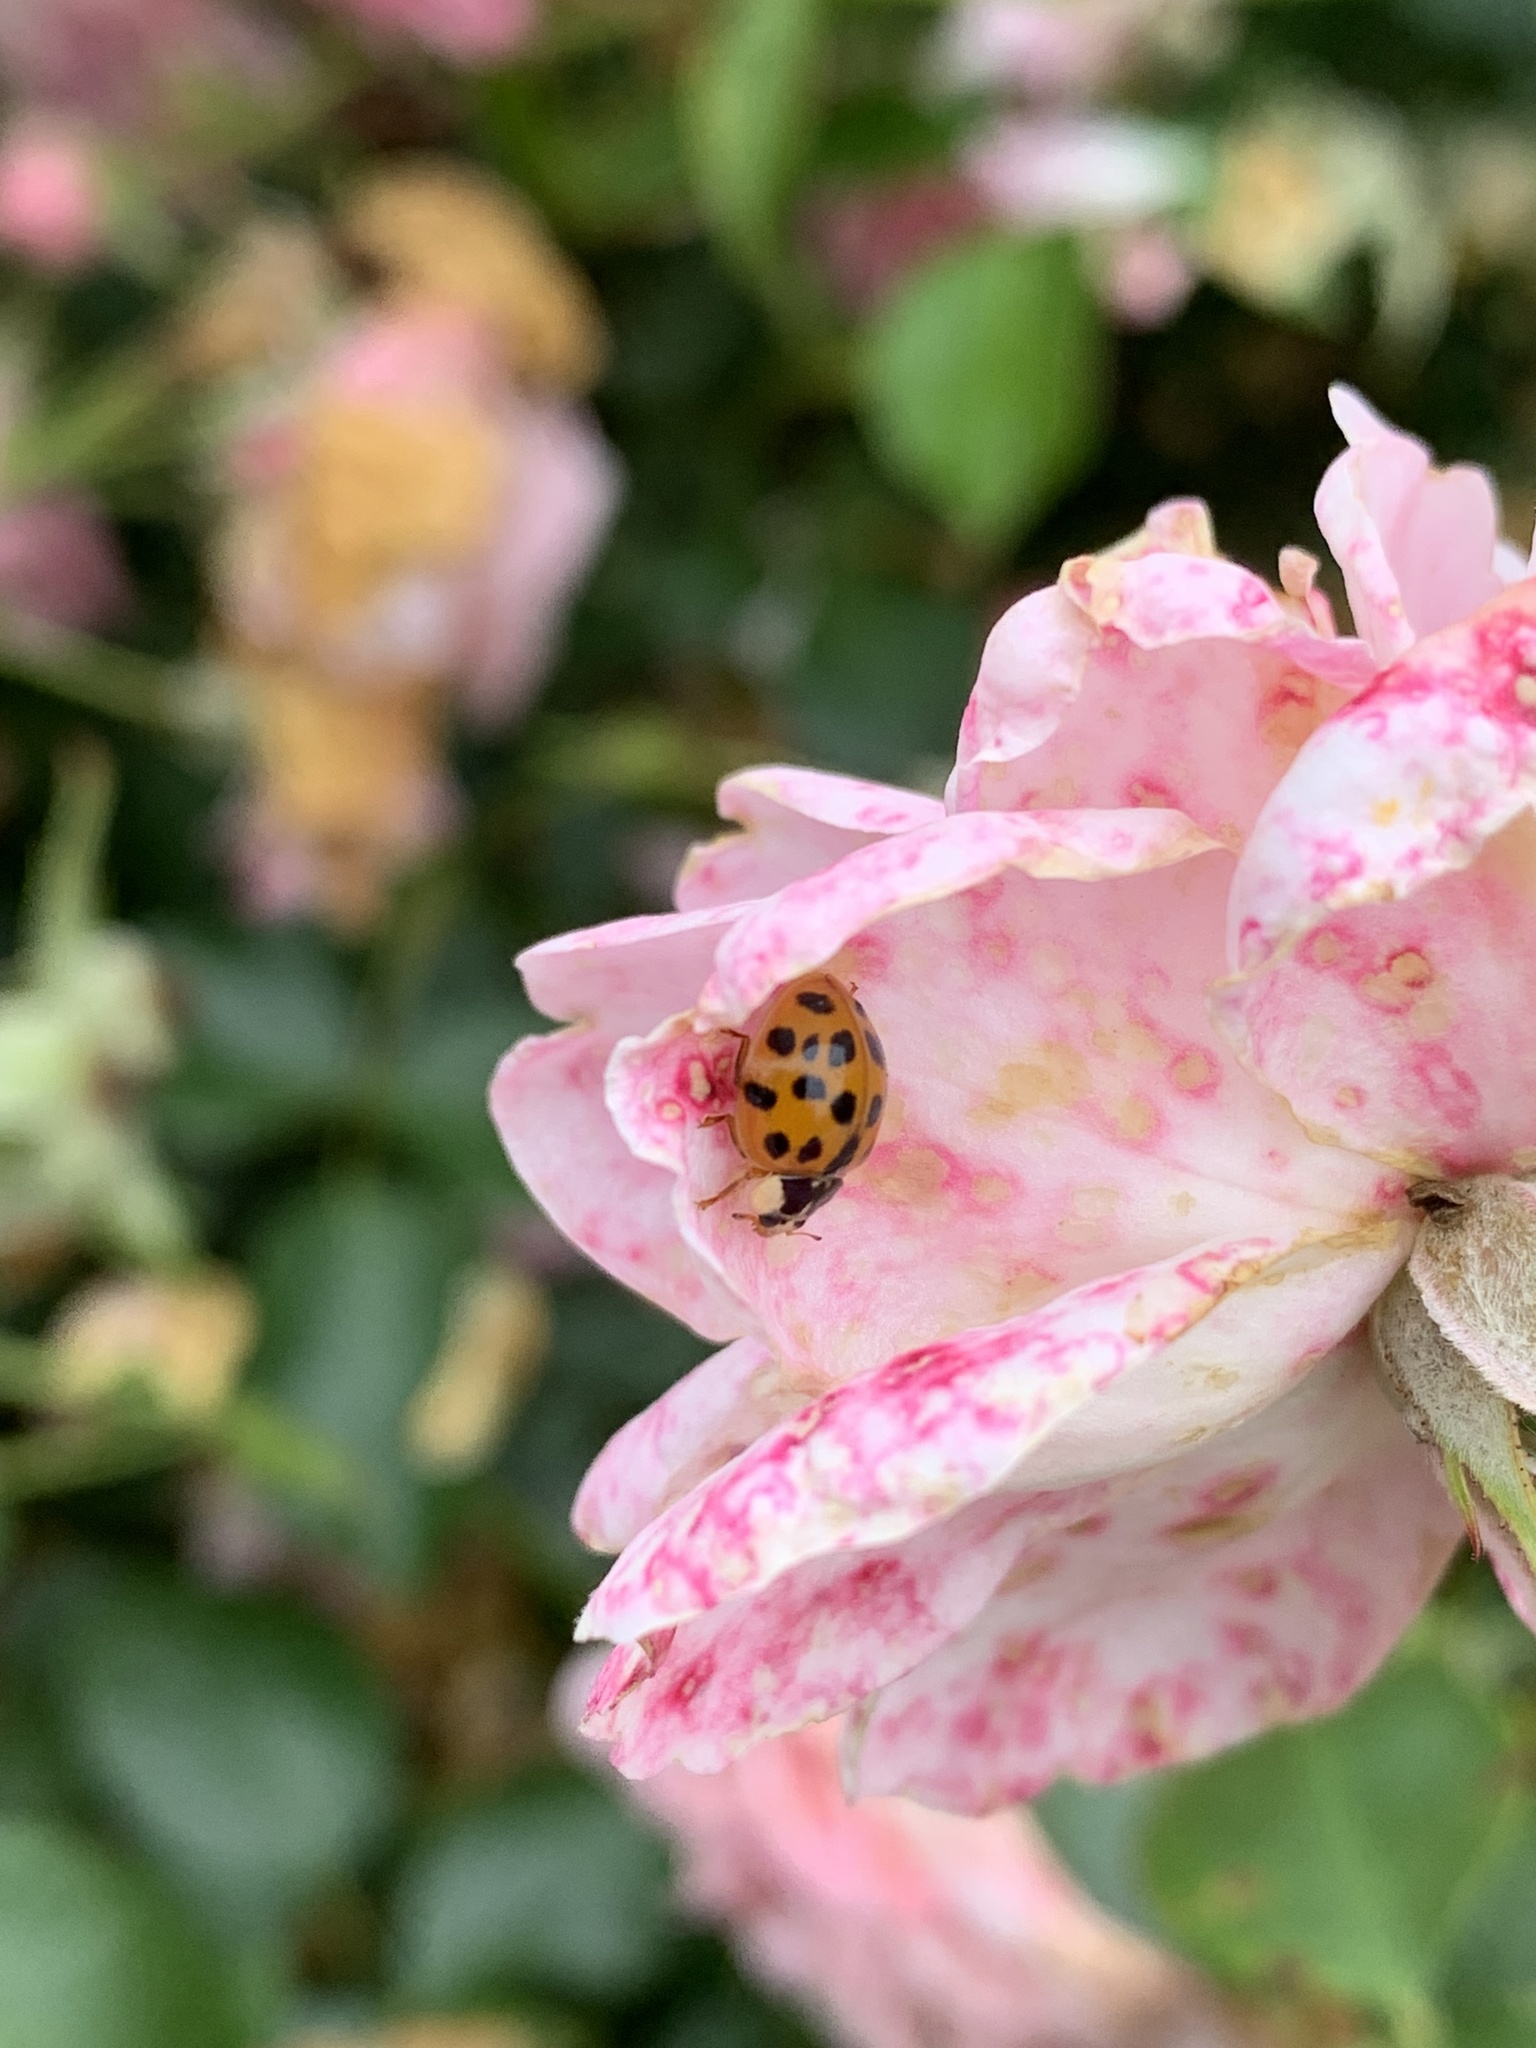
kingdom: Animalia
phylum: Arthropoda
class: Insecta
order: Coleoptera
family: Coccinellidae
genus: Harmonia
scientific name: Harmonia axyridis
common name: Harlequin ladybird
